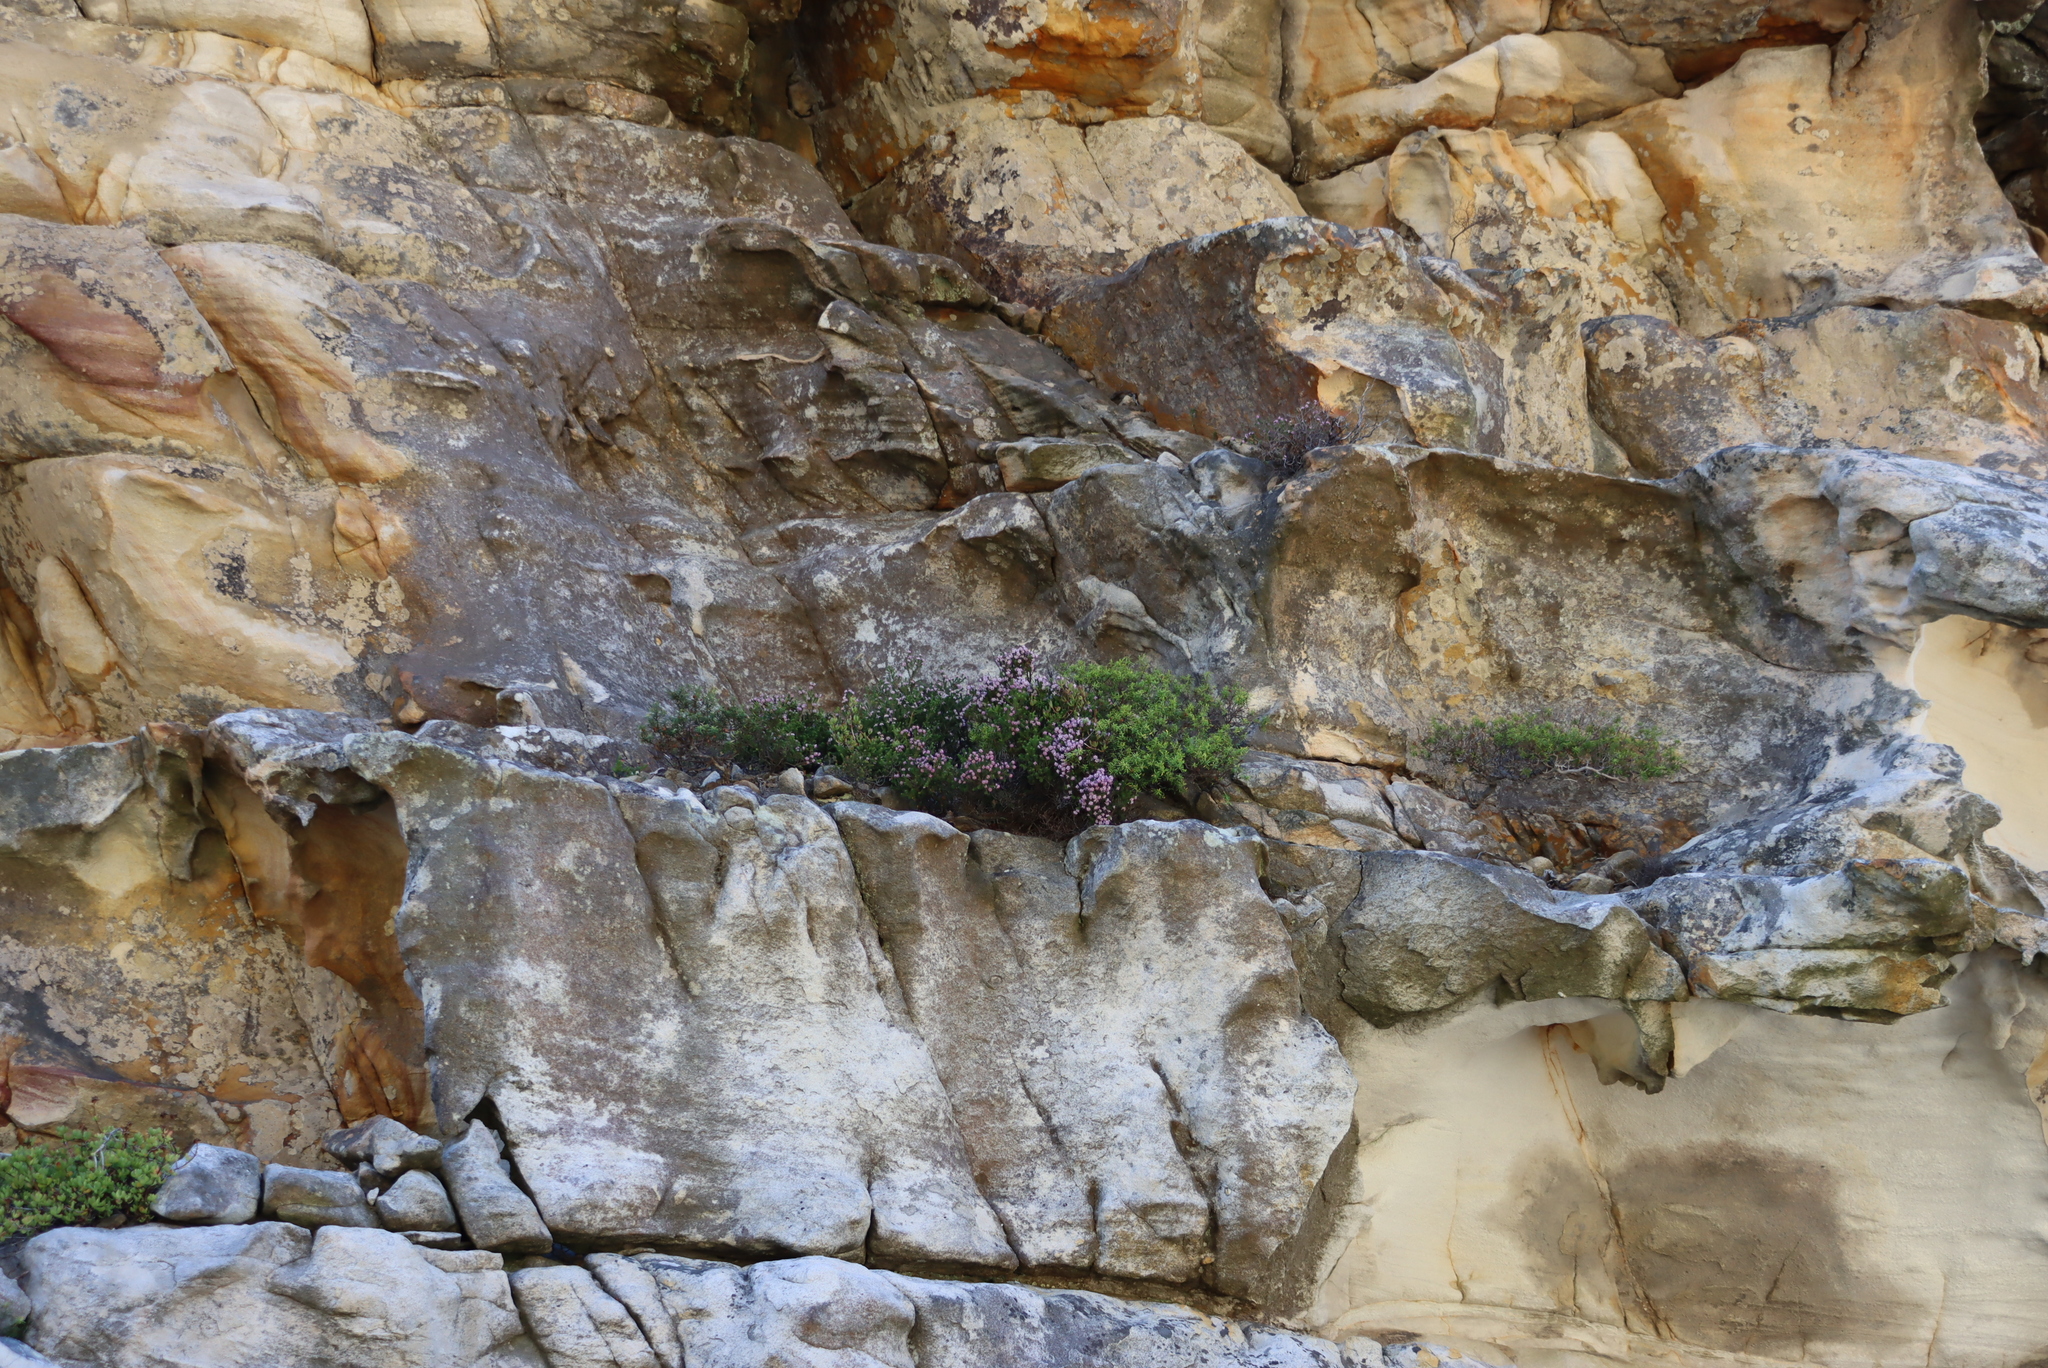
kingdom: Plantae
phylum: Tracheophyta
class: Magnoliopsida
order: Ericales
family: Ericaceae
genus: Erica
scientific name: Erica ericoides
